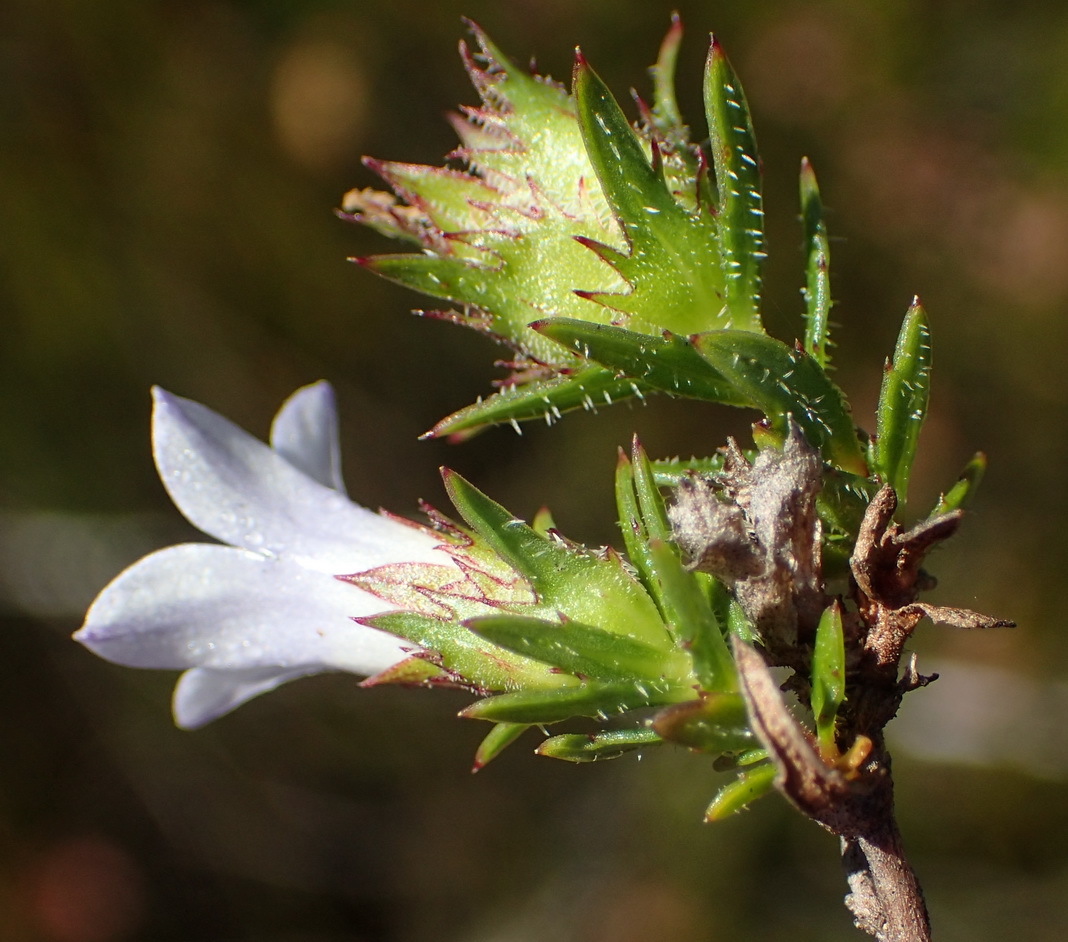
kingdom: Plantae
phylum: Tracheophyta
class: Magnoliopsida
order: Asterales
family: Campanulaceae
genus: Prismatocarpus
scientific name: Prismatocarpus rogersii
